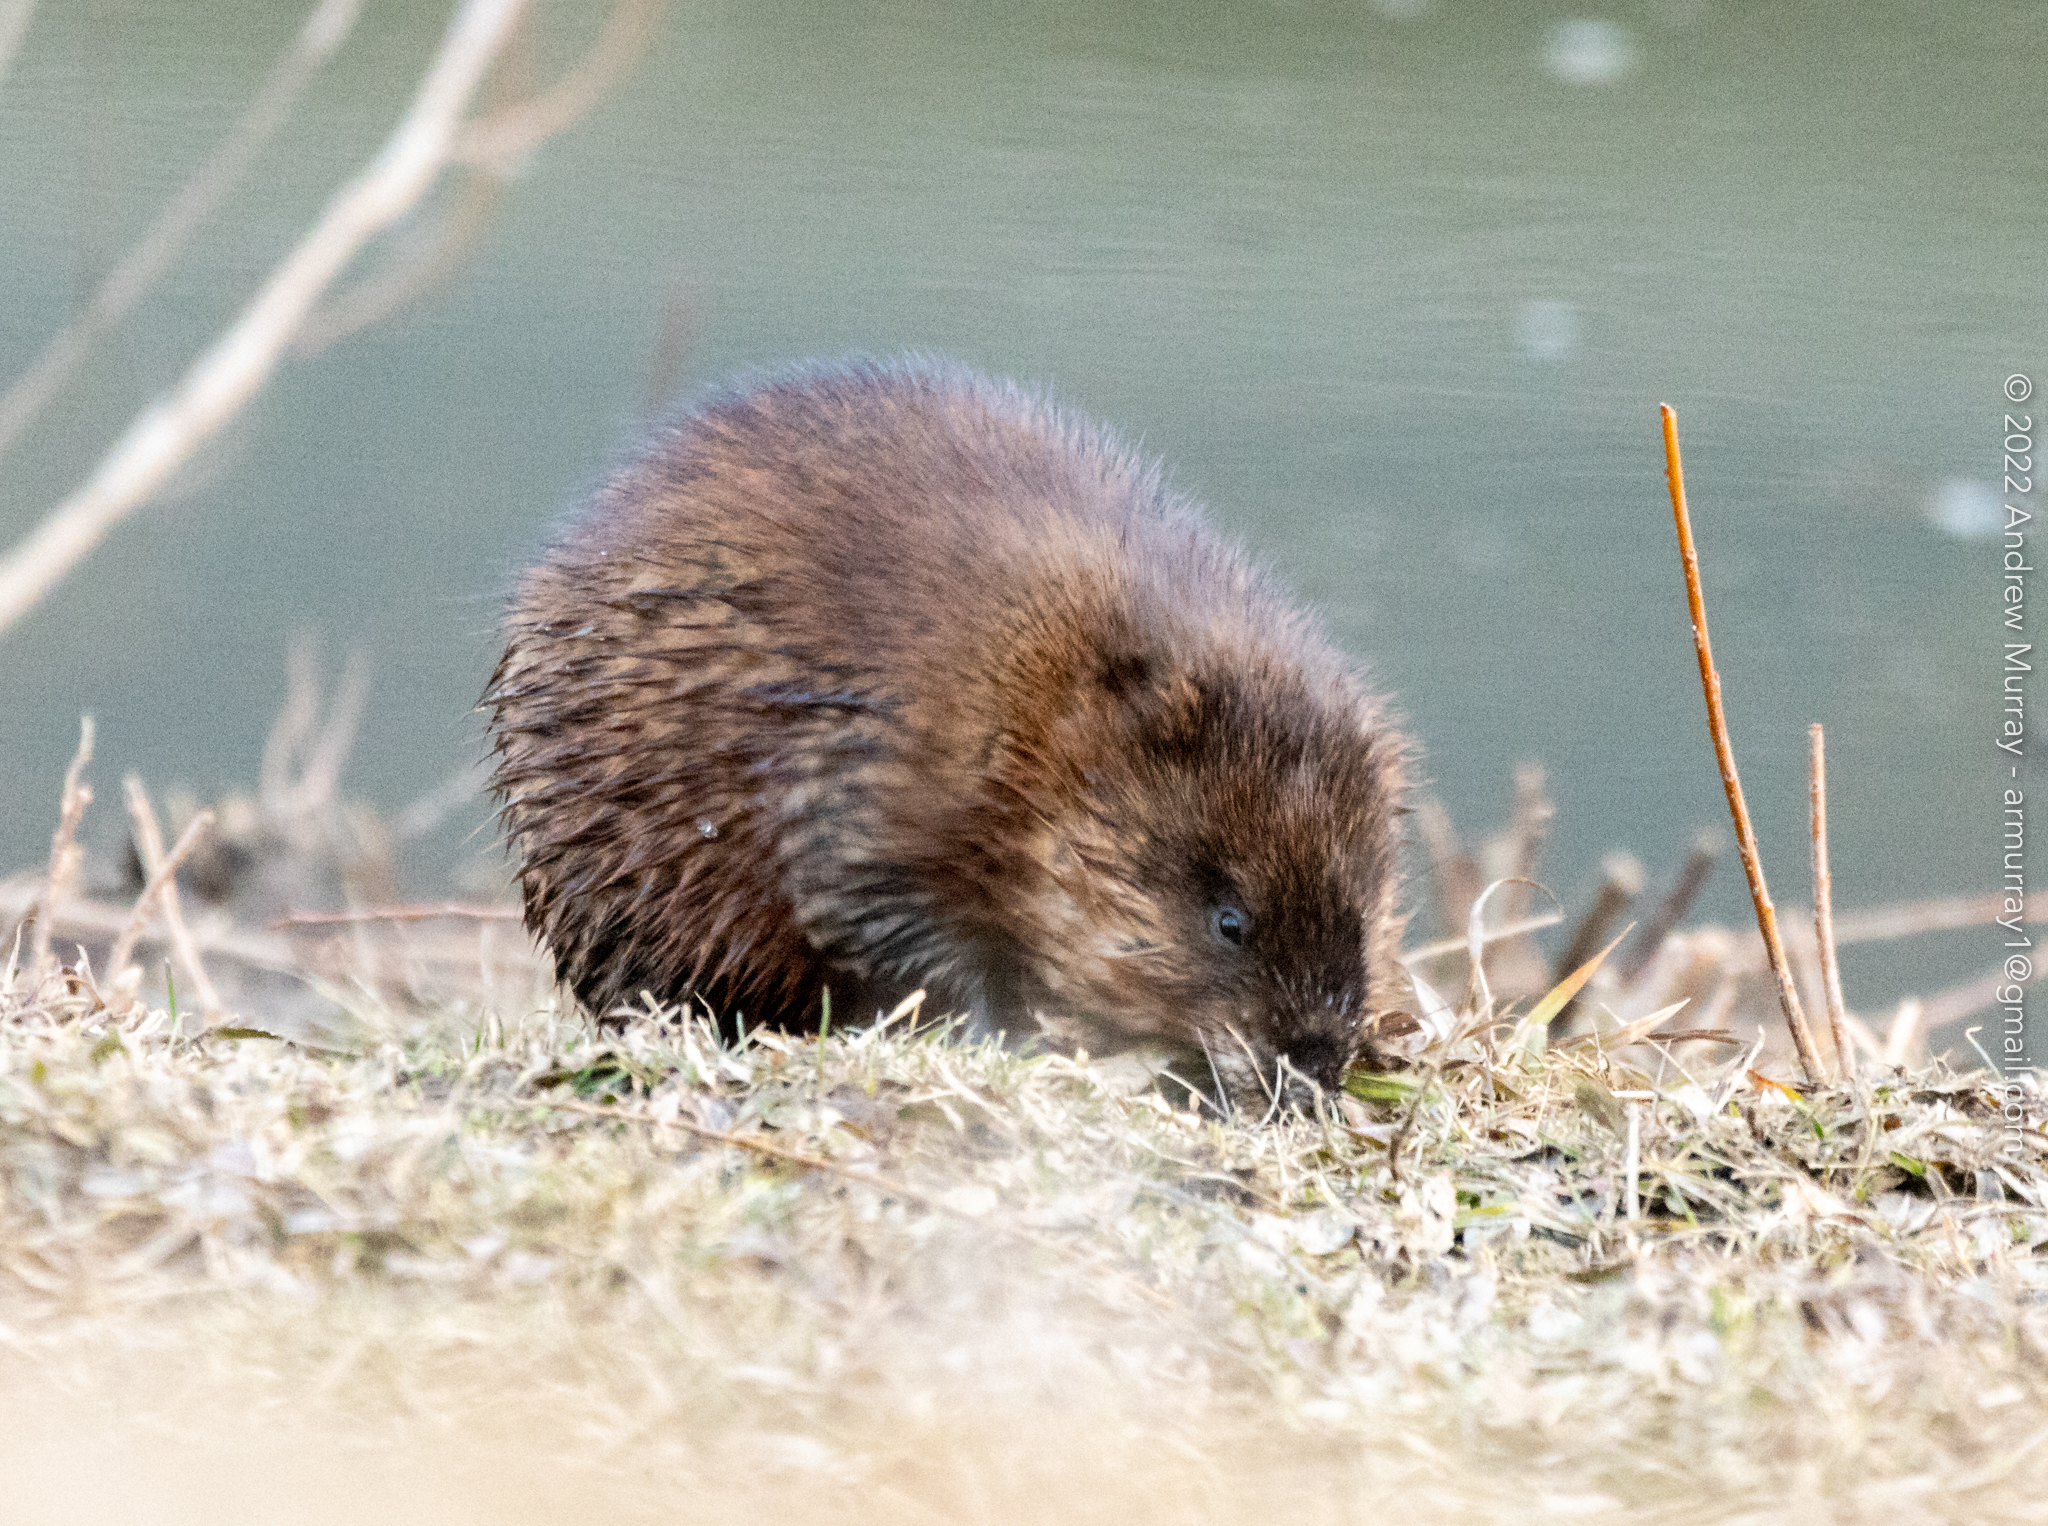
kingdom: Animalia
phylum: Chordata
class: Mammalia
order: Rodentia
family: Cricetidae
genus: Ondatra
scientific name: Ondatra zibethicus
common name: Muskrat
